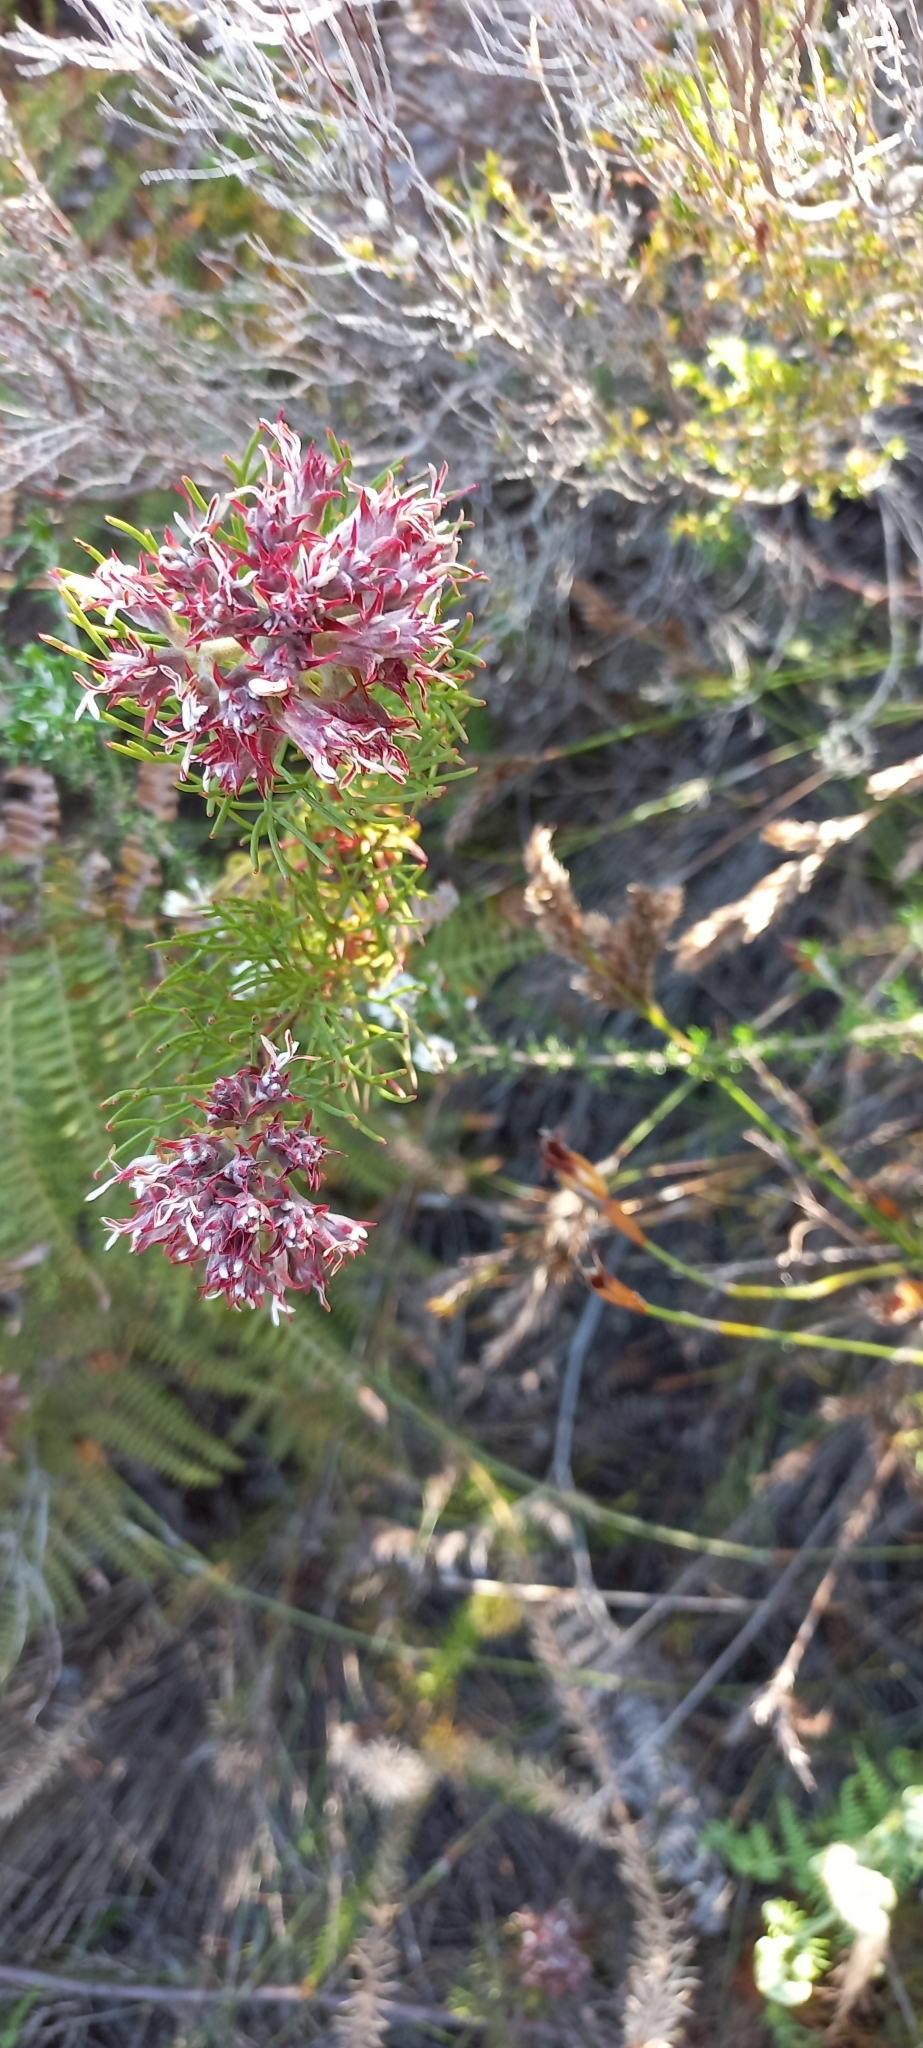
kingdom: Plantae
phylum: Tracheophyta
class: Magnoliopsida
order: Proteales
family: Proteaceae
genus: Serruria
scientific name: Serruria rubricaulis
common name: Red-stem spiderhead
